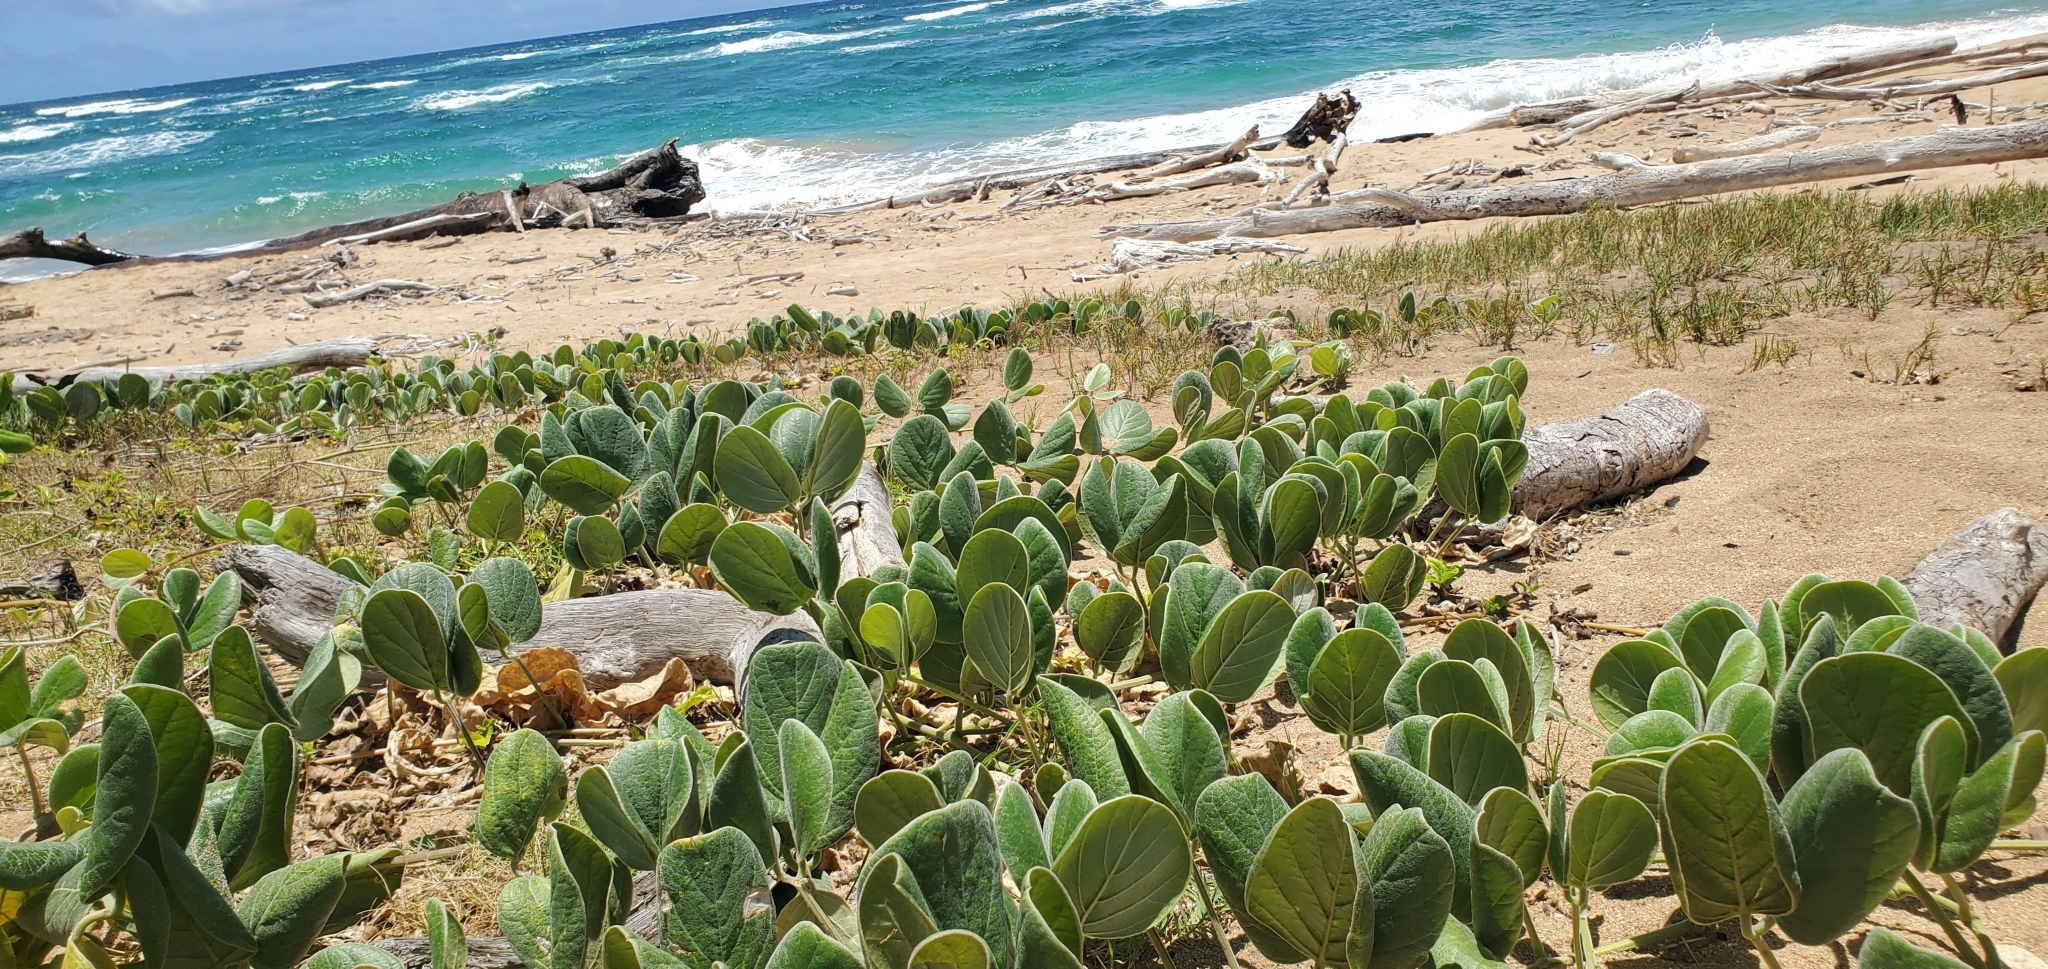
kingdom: Plantae
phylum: Tracheophyta
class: Magnoliopsida
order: Fabales
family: Fabaceae
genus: Canavalia
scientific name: Canavalia sericea
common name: Silky jackbean
